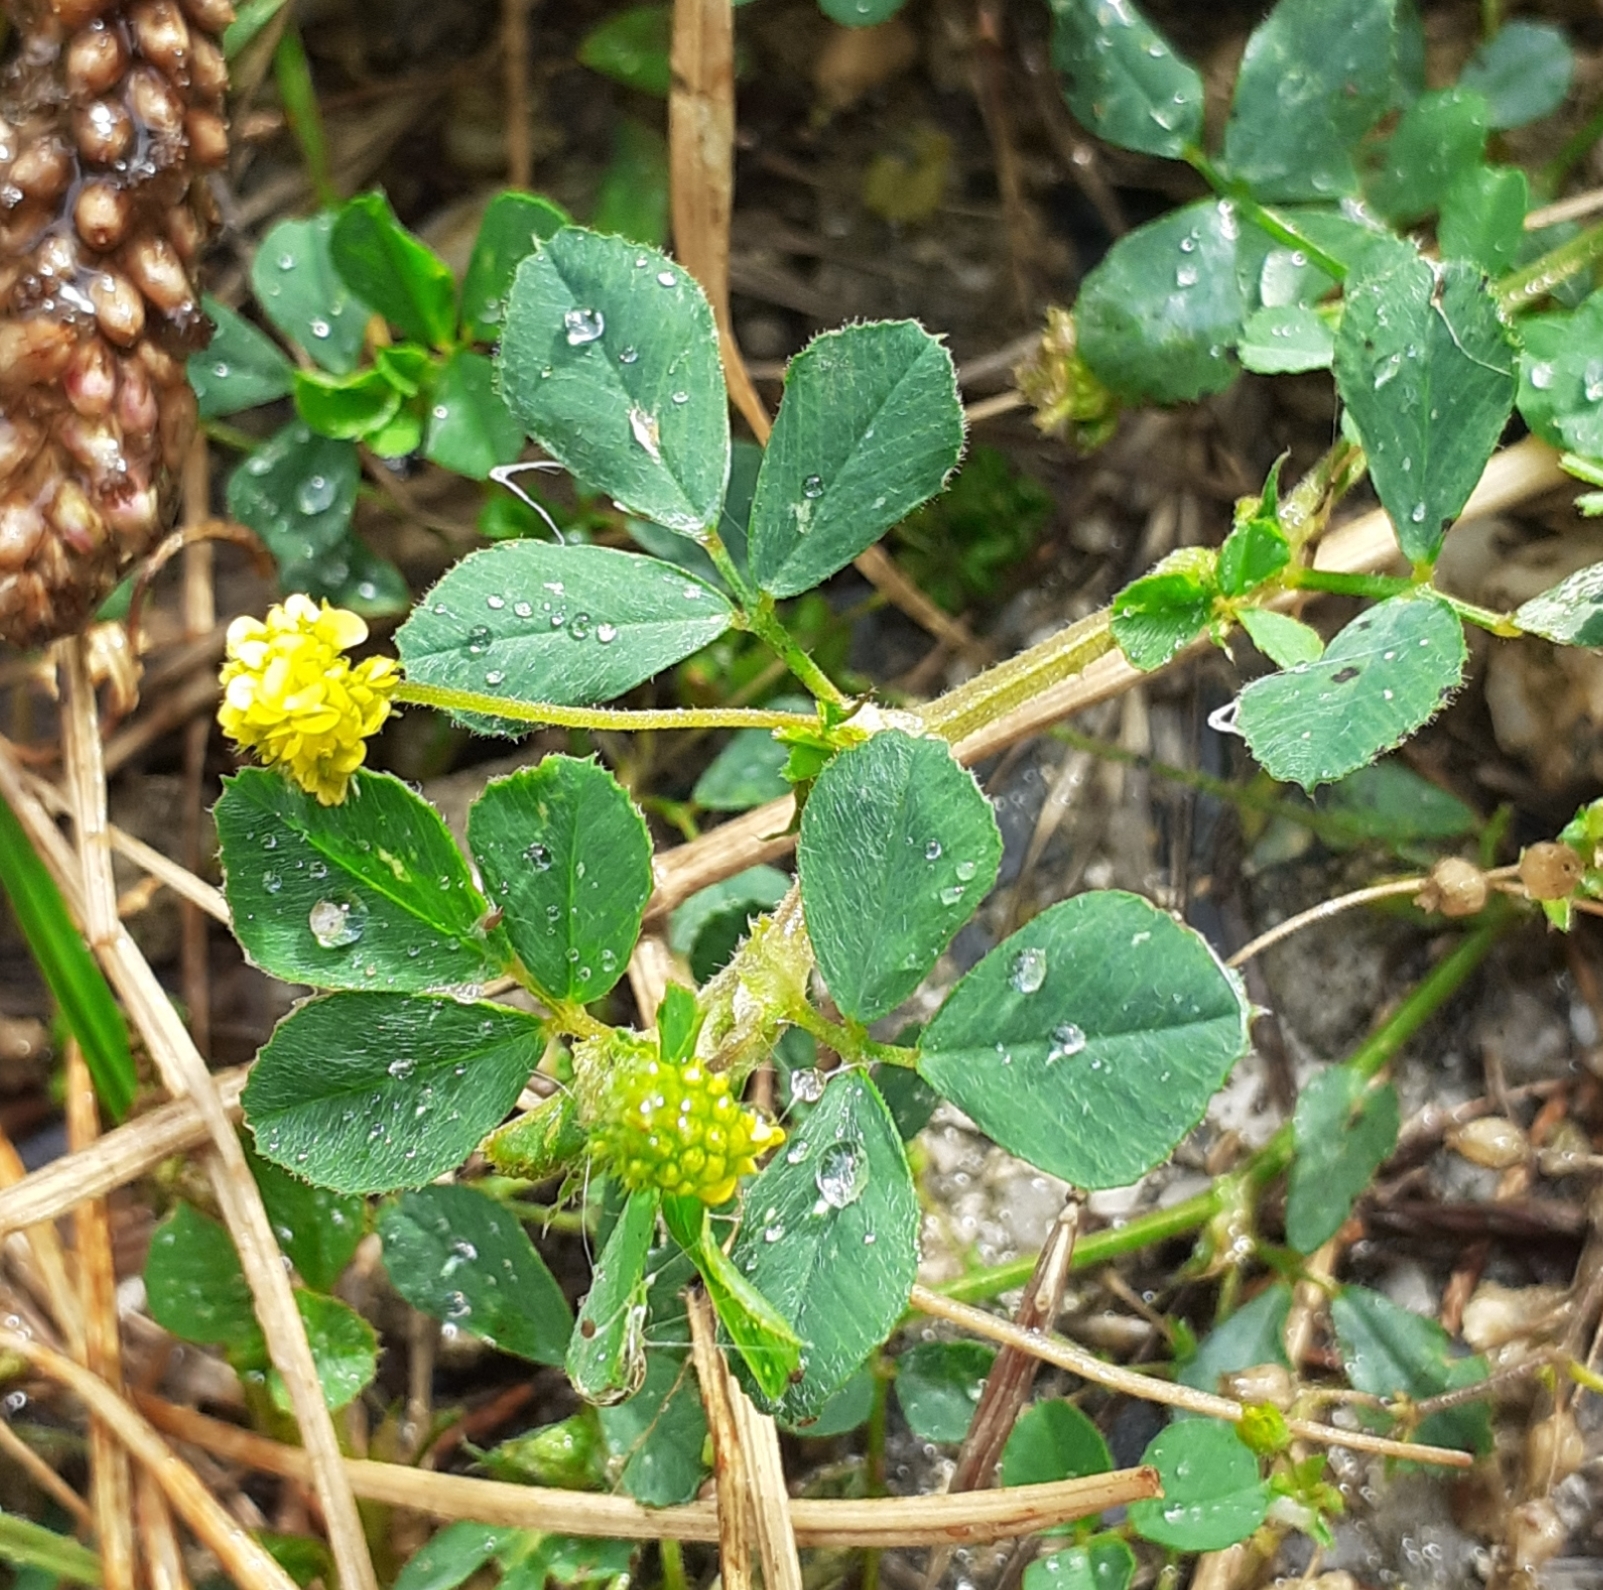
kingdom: Plantae
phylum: Tracheophyta
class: Magnoliopsida
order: Fabales
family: Fabaceae
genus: Medicago
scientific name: Medicago lupulina
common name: Black medick
